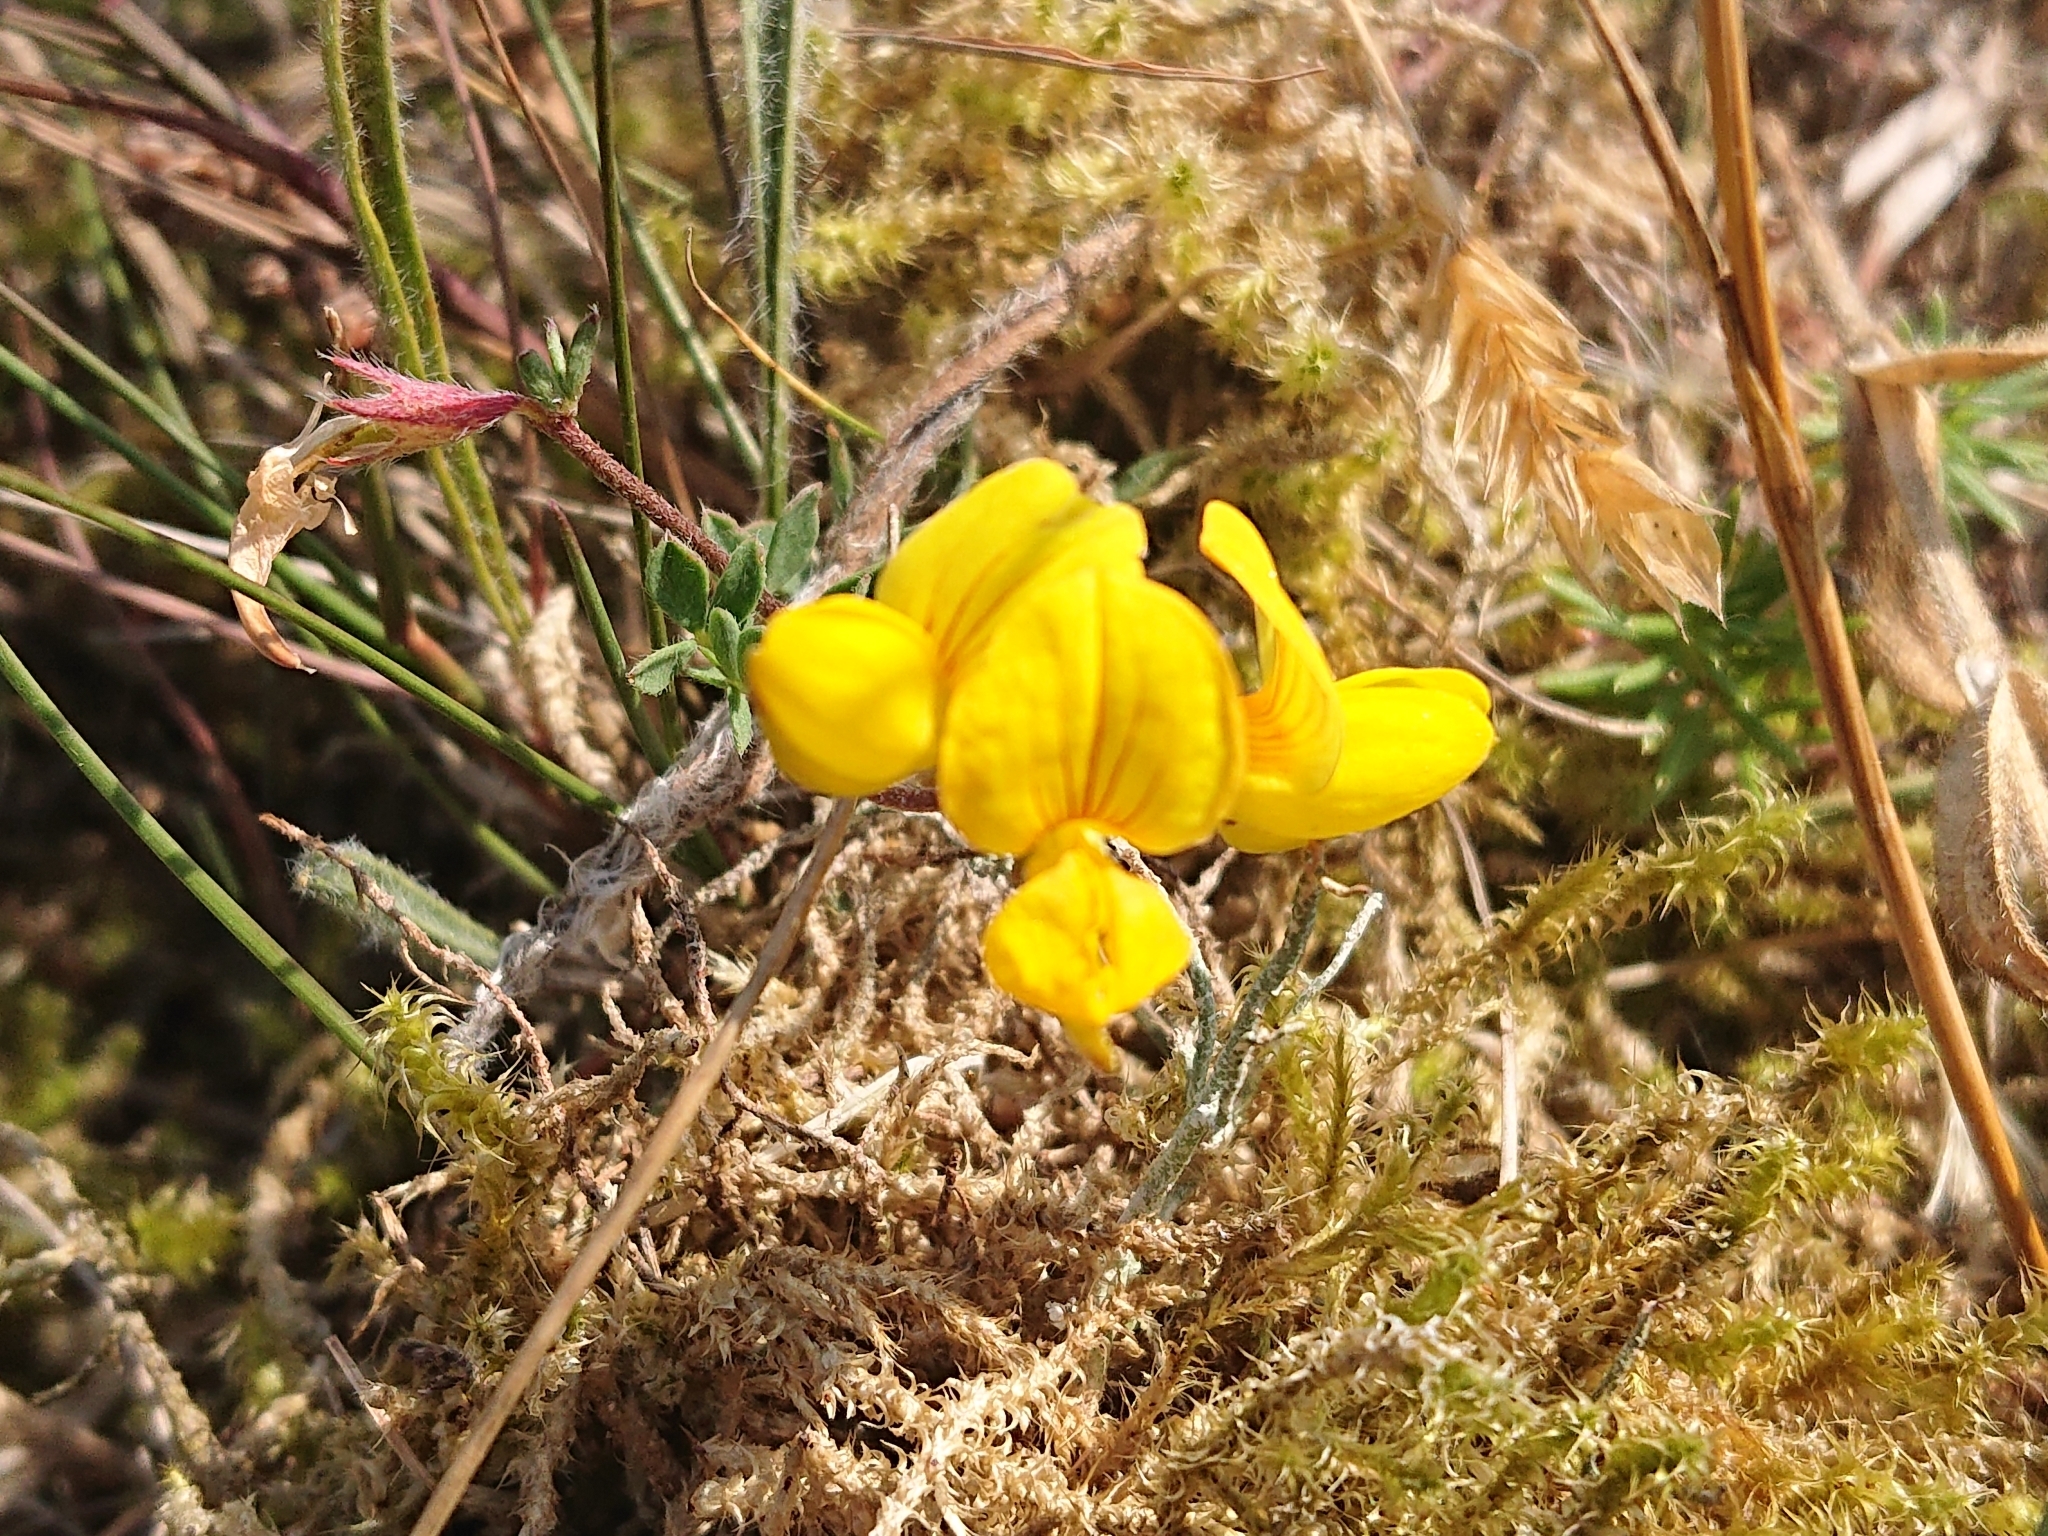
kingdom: Plantae
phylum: Tracheophyta
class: Magnoliopsida
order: Fabales
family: Fabaceae
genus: Lotus
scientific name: Lotus corniculatus
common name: Common bird's-foot-trefoil
